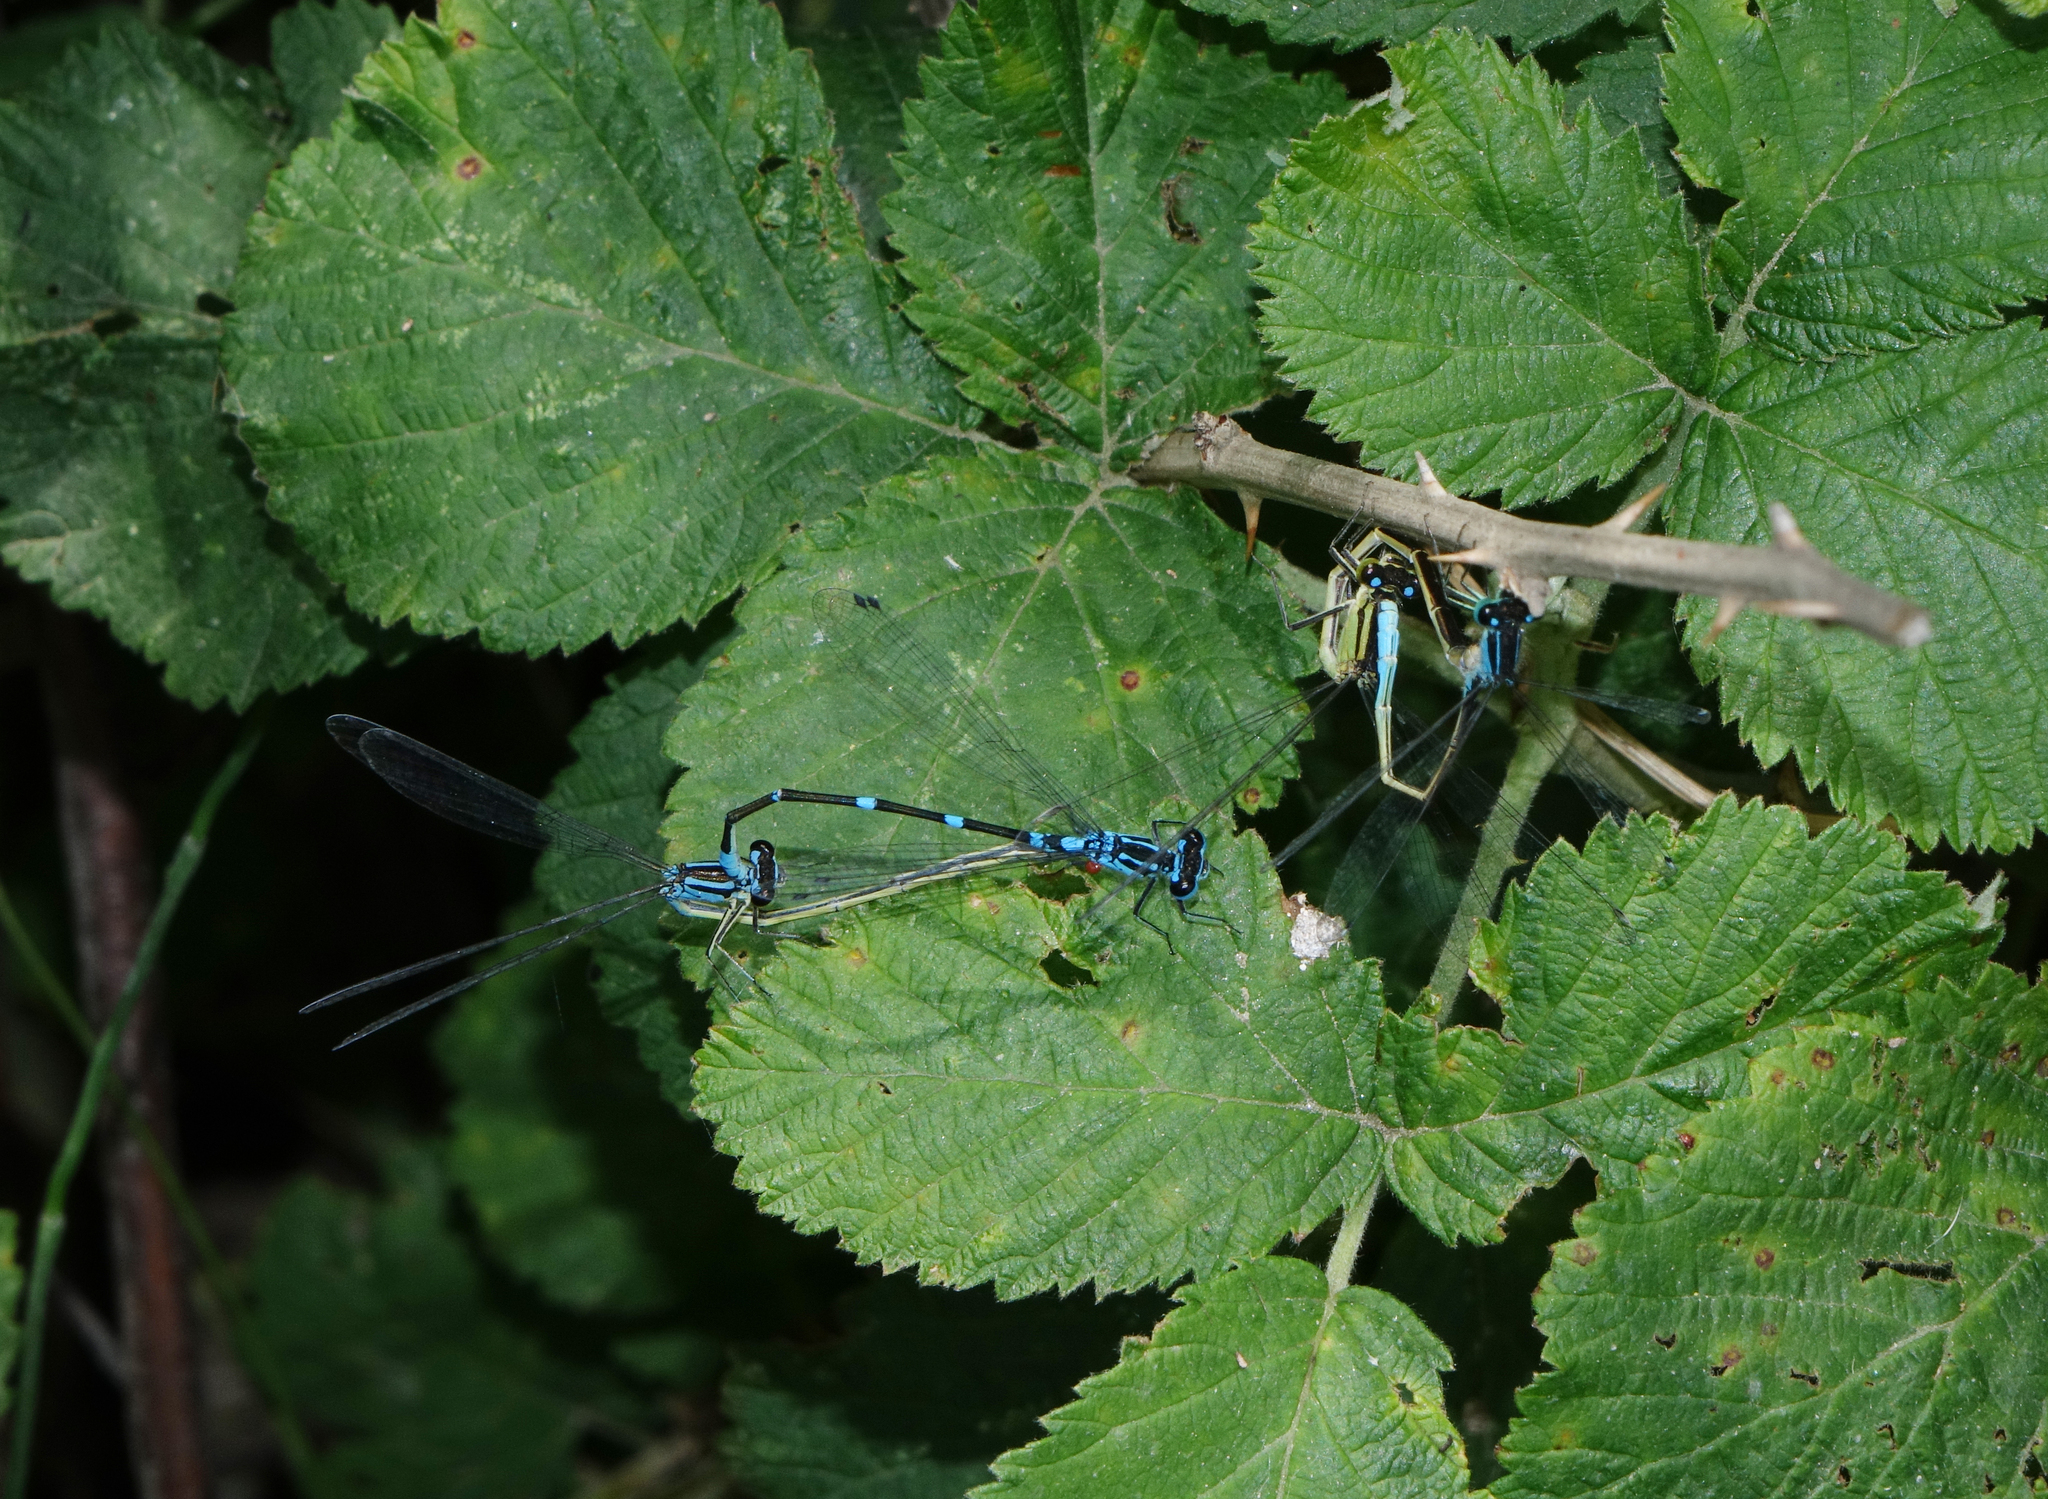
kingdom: Animalia
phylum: Arthropoda
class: Insecta
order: Odonata
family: Coenagrionidae
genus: Coenagrion
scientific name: Coenagrion pulchellum
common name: Variable bluet
